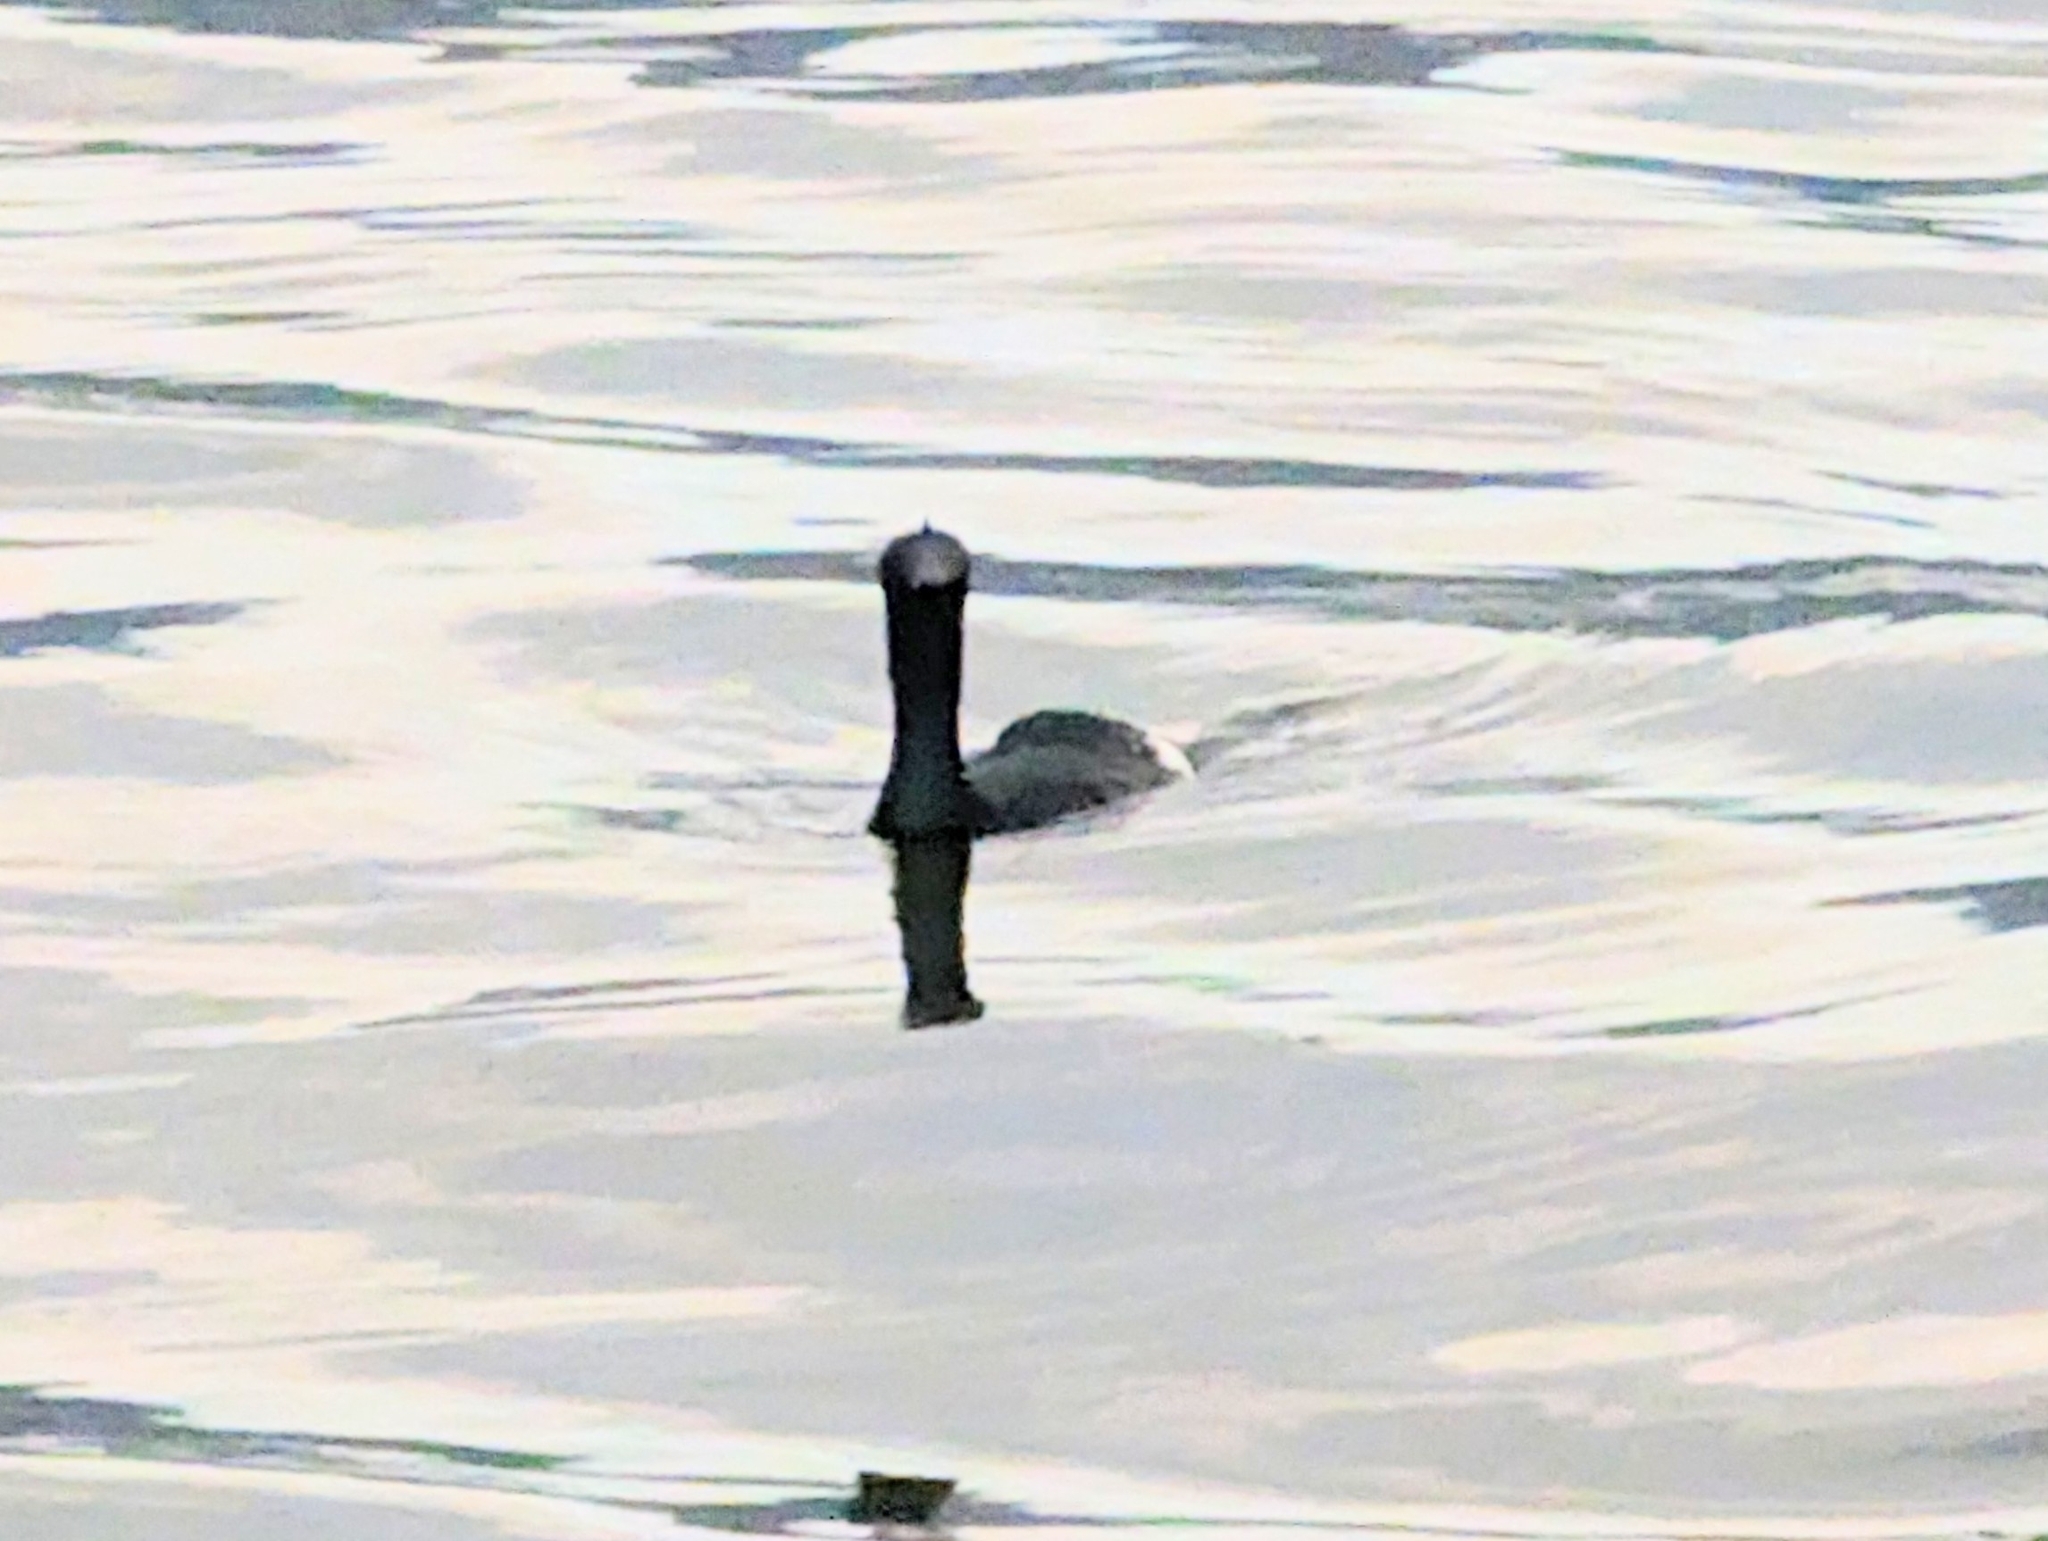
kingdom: Animalia
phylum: Chordata
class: Aves
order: Suliformes
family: Phalacrocoracidae
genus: Phalacrocorax
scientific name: Phalacrocorax pelagicus
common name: Pelagic cormorant
